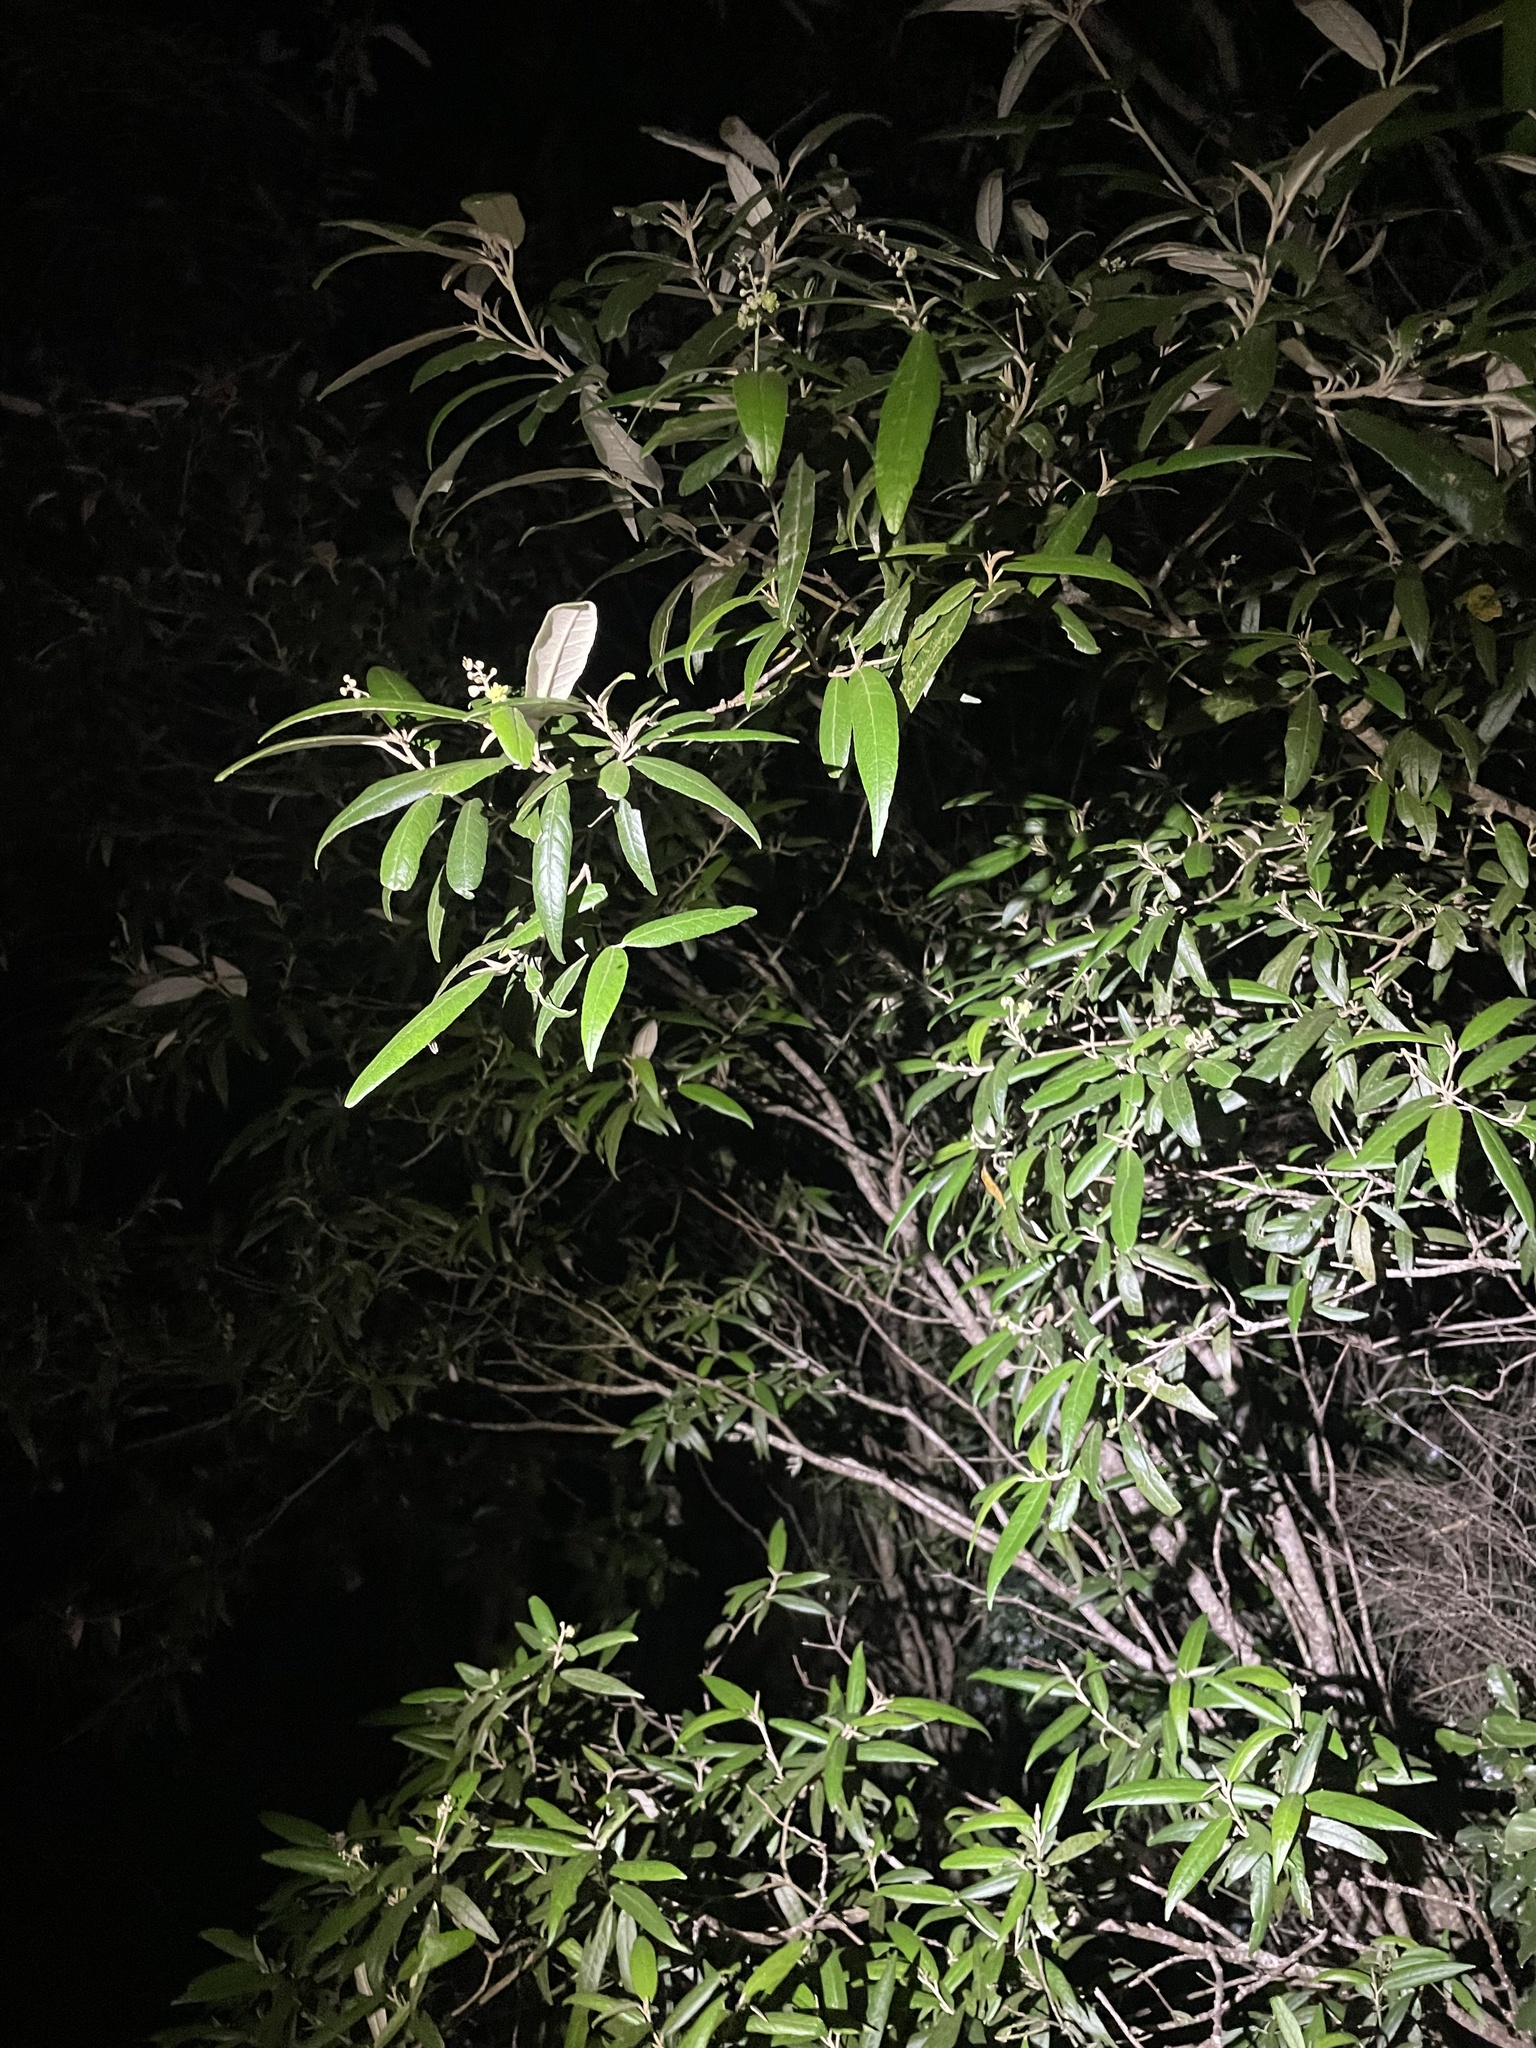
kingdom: Plantae
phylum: Tracheophyta
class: Magnoliopsida
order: Malpighiales
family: Euphorbiaceae
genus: Croton
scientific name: Croton phebalioides
